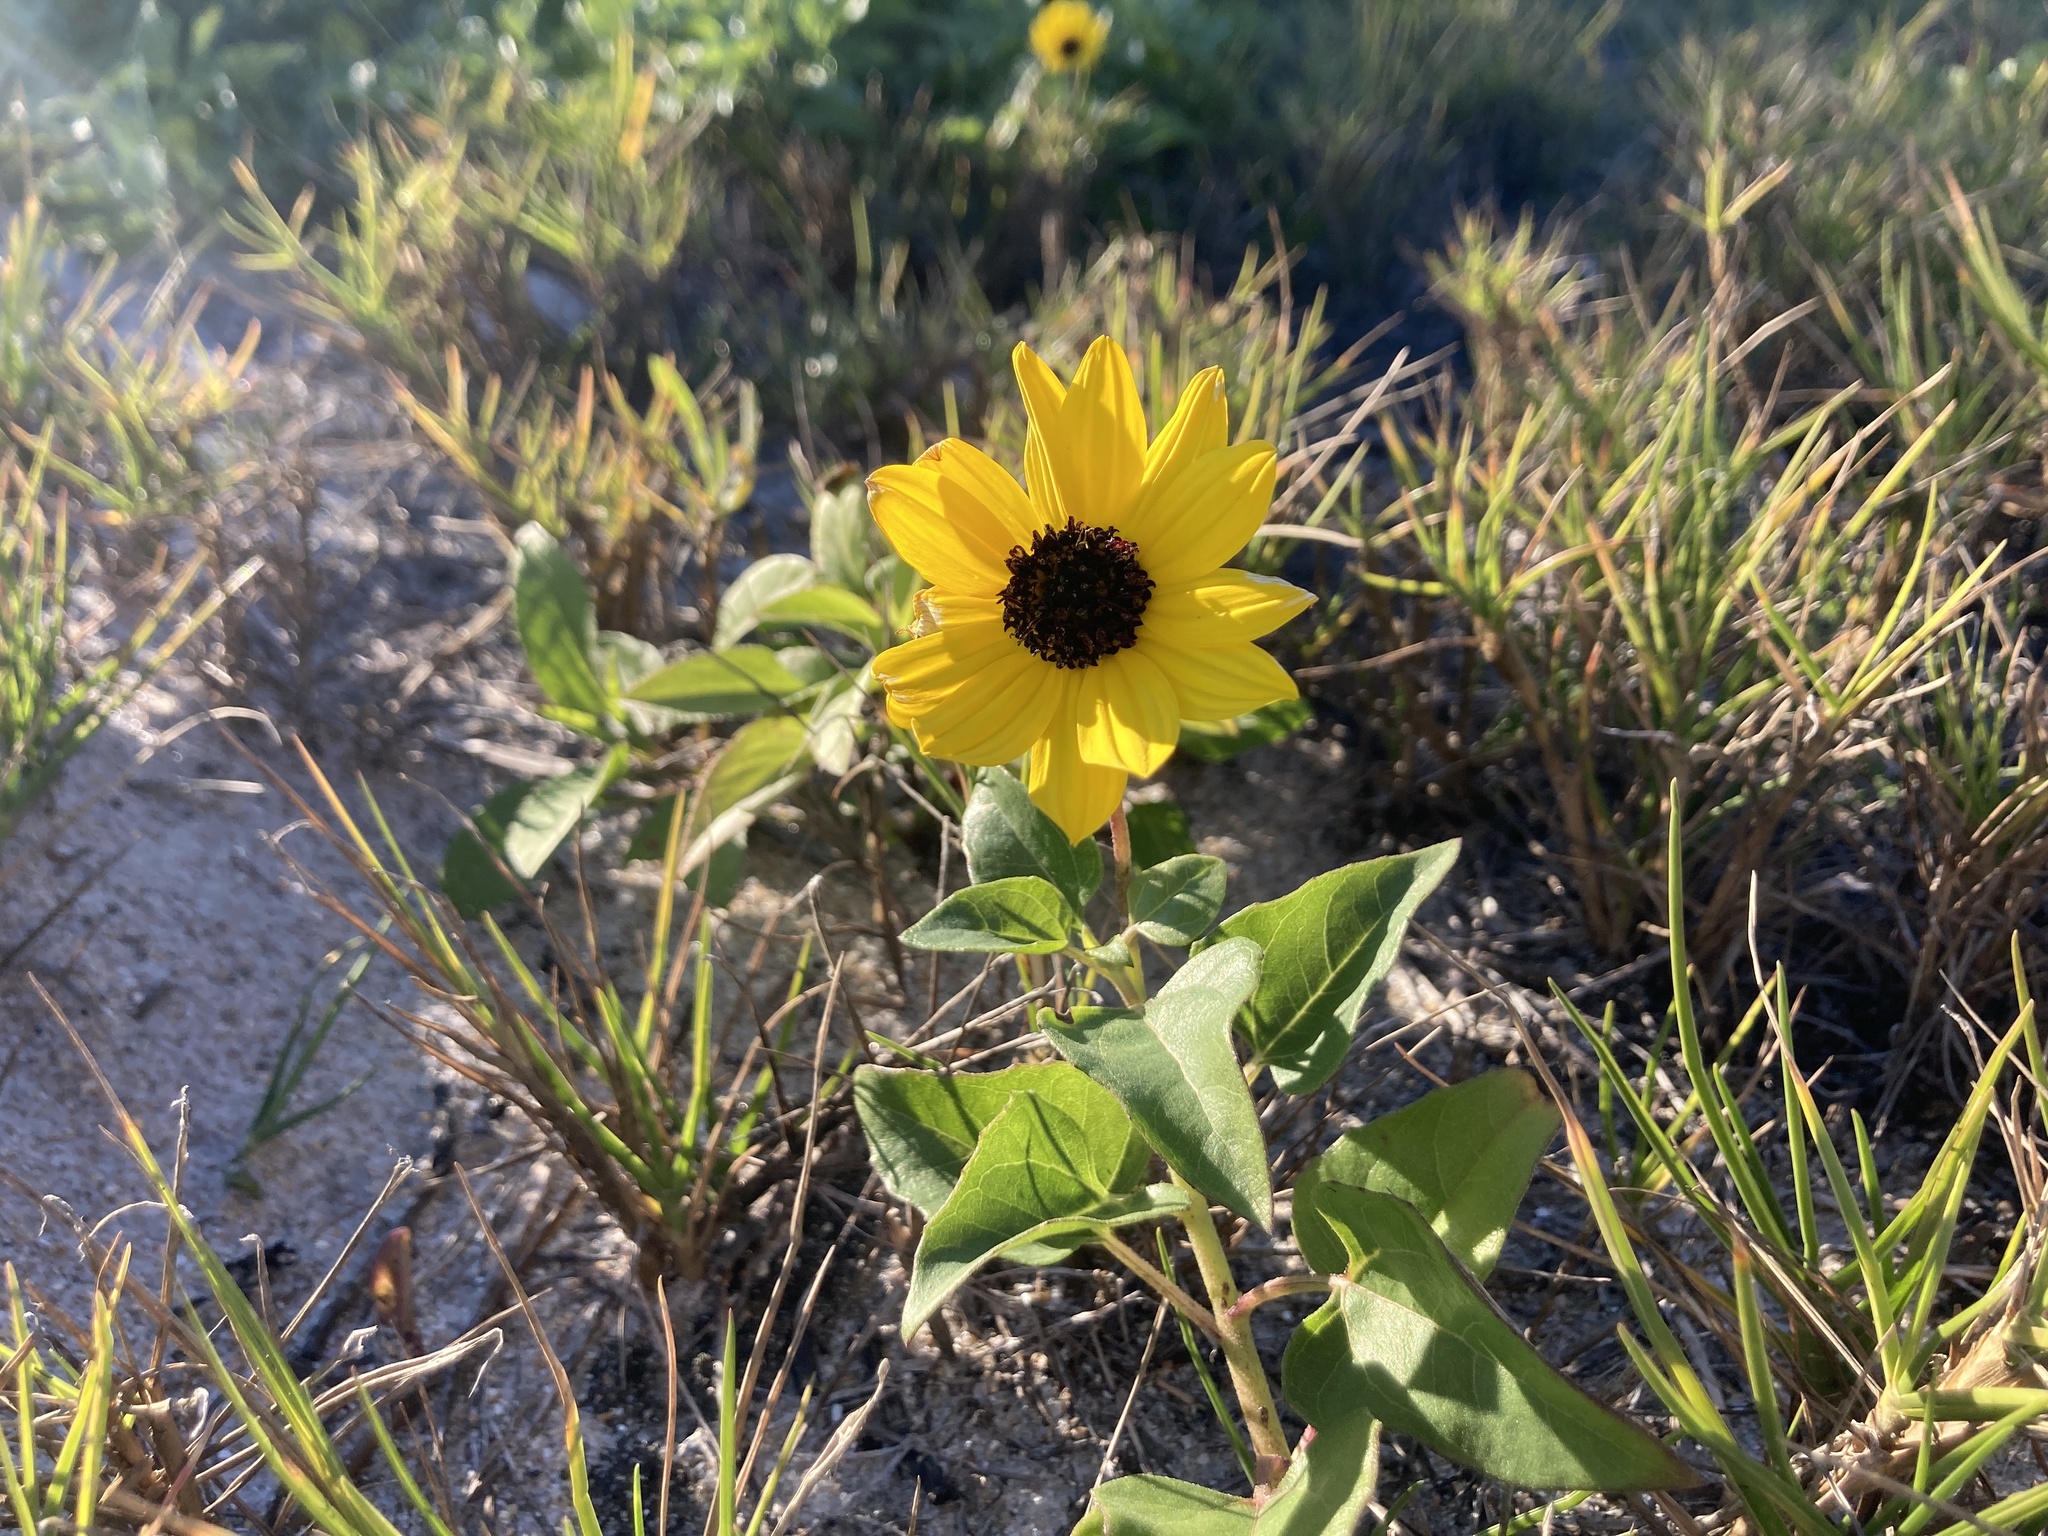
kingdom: Plantae
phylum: Tracheophyta
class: Magnoliopsida
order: Asterales
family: Asteraceae
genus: Helianthus
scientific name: Helianthus debilis
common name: Weak sunflower
